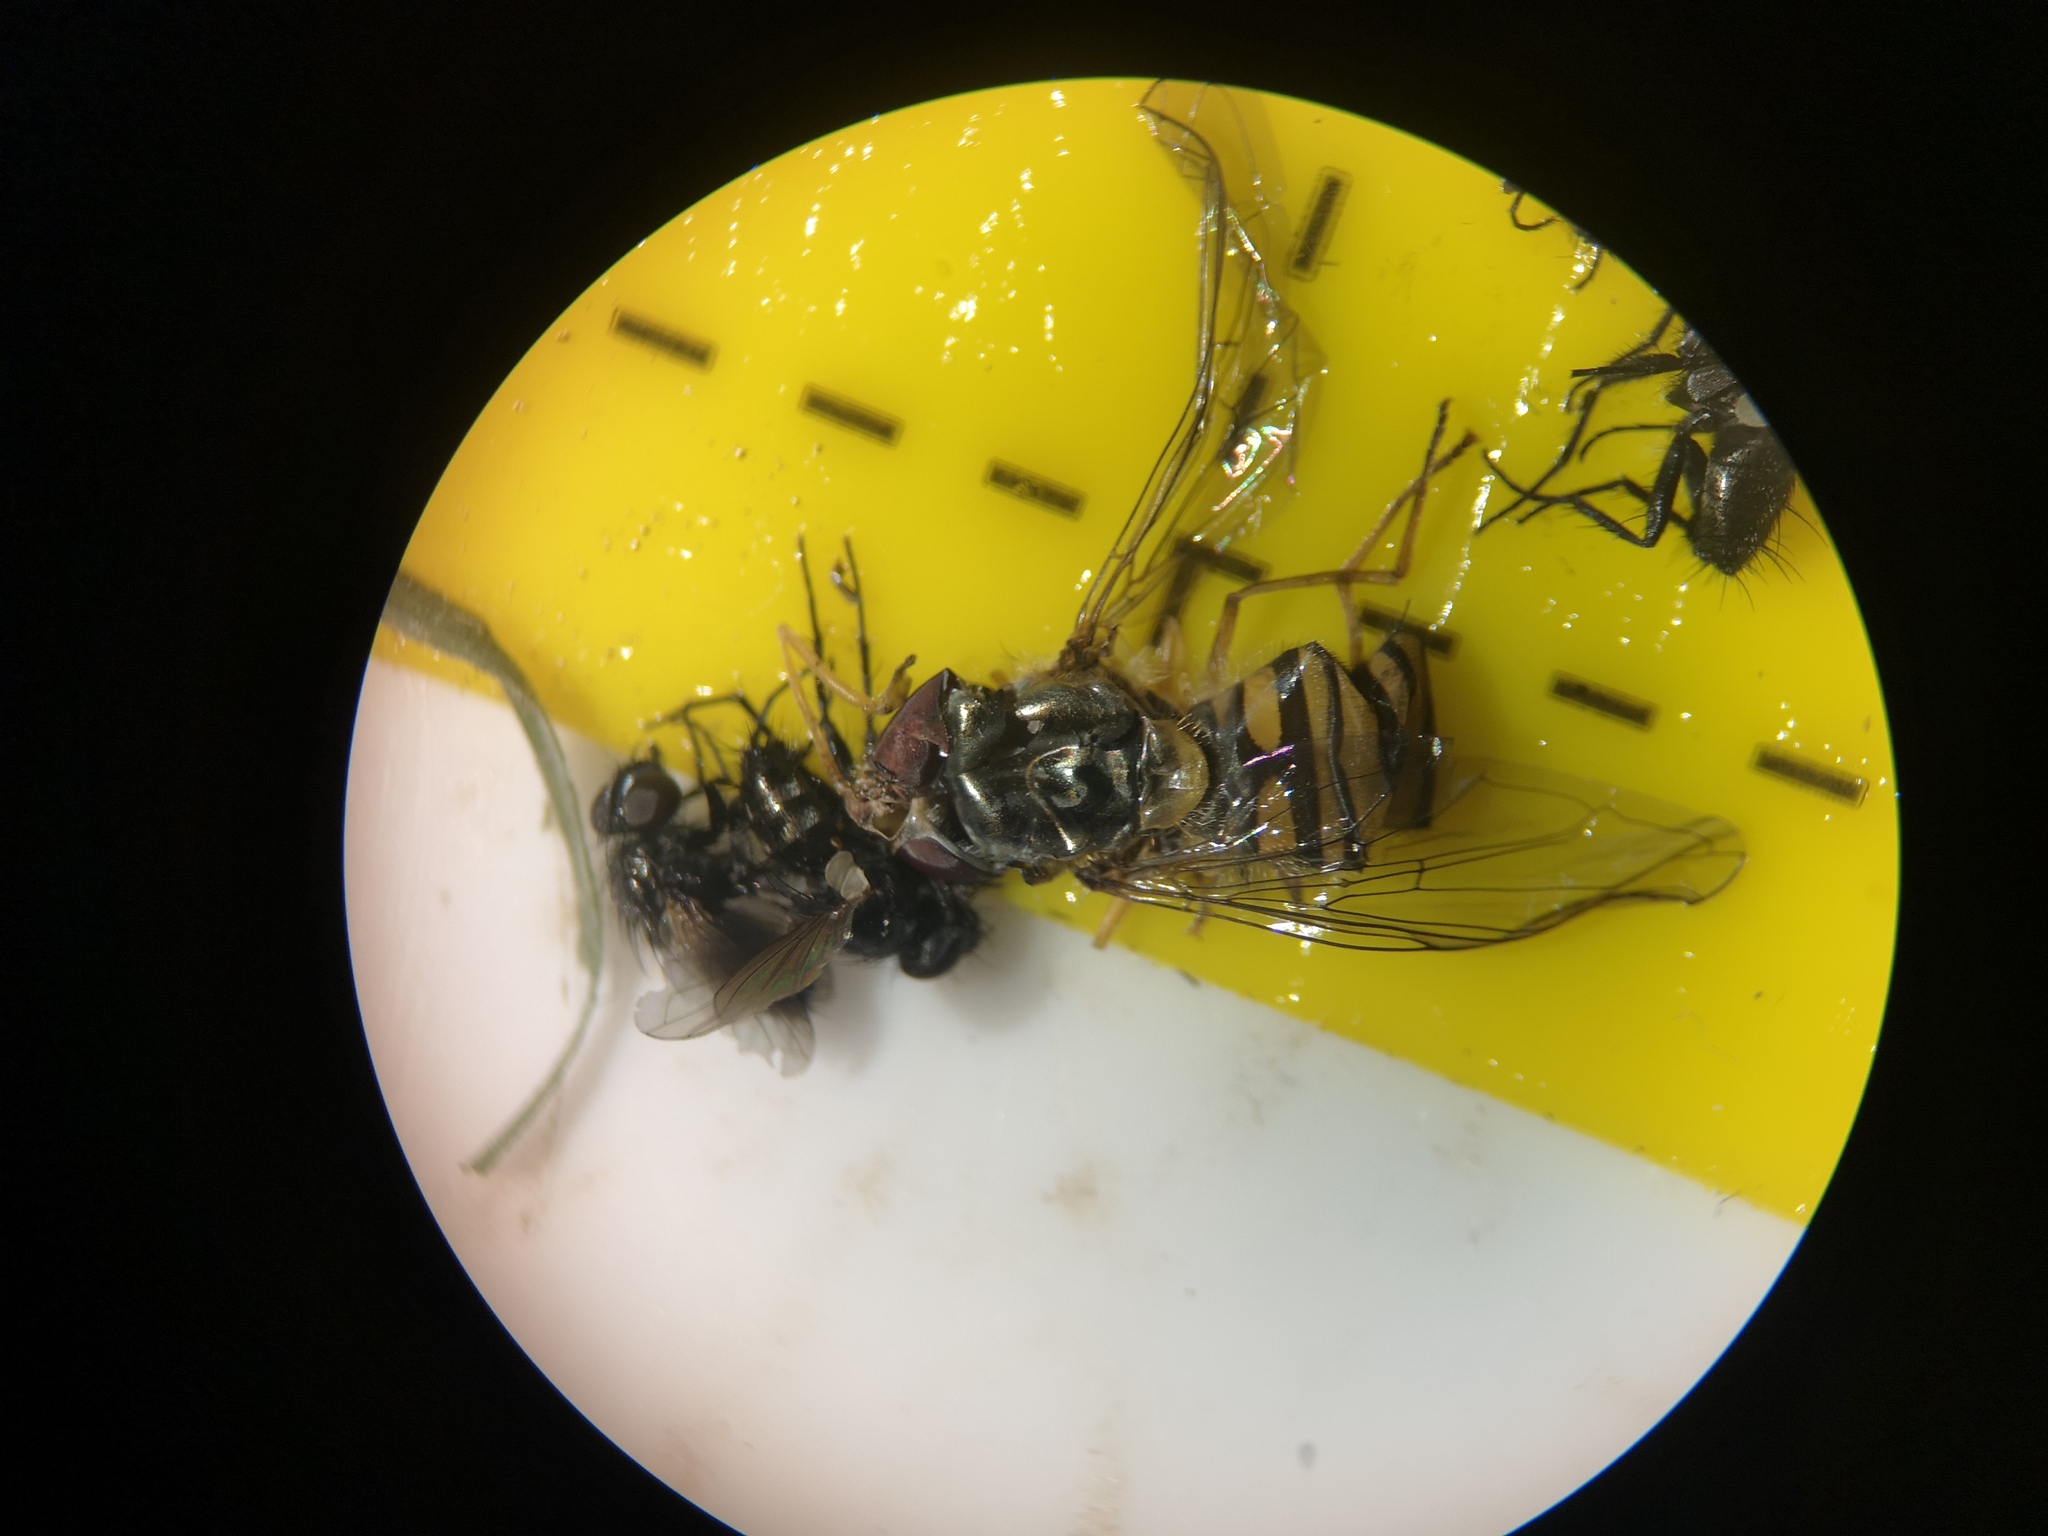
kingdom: Animalia
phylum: Arthropoda
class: Insecta
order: Diptera
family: Syrphidae
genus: Episyrphus
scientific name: Episyrphus balteatus
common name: Marmalade hoverfly
